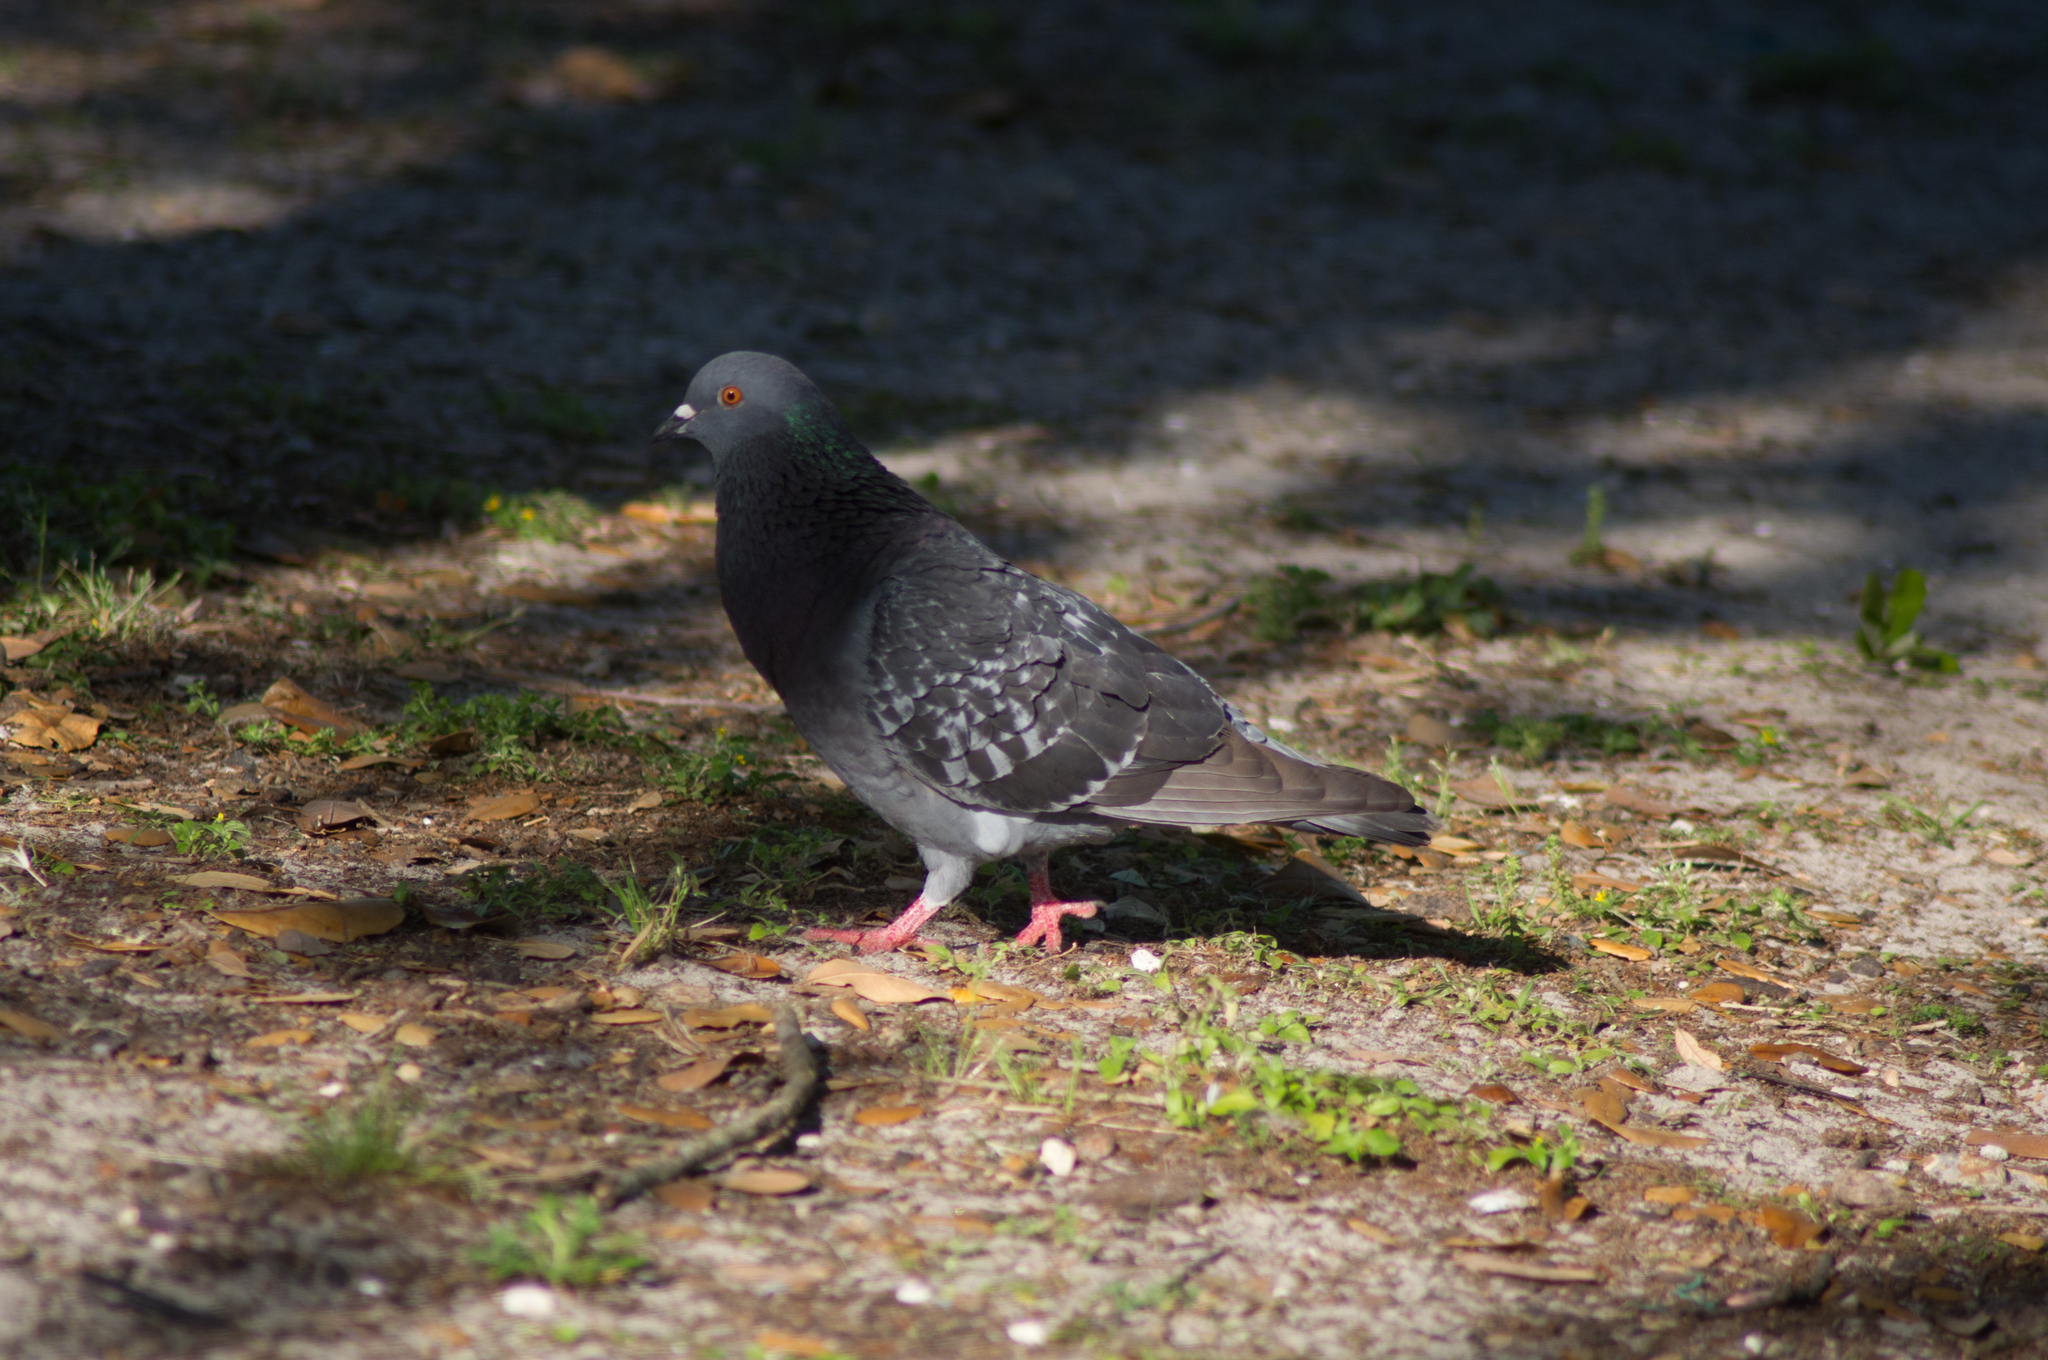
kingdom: Animalia
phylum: Chordata
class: Aves
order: Columbiformes
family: Columbidae
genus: Columba
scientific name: Columba livia
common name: Rock pigeon
